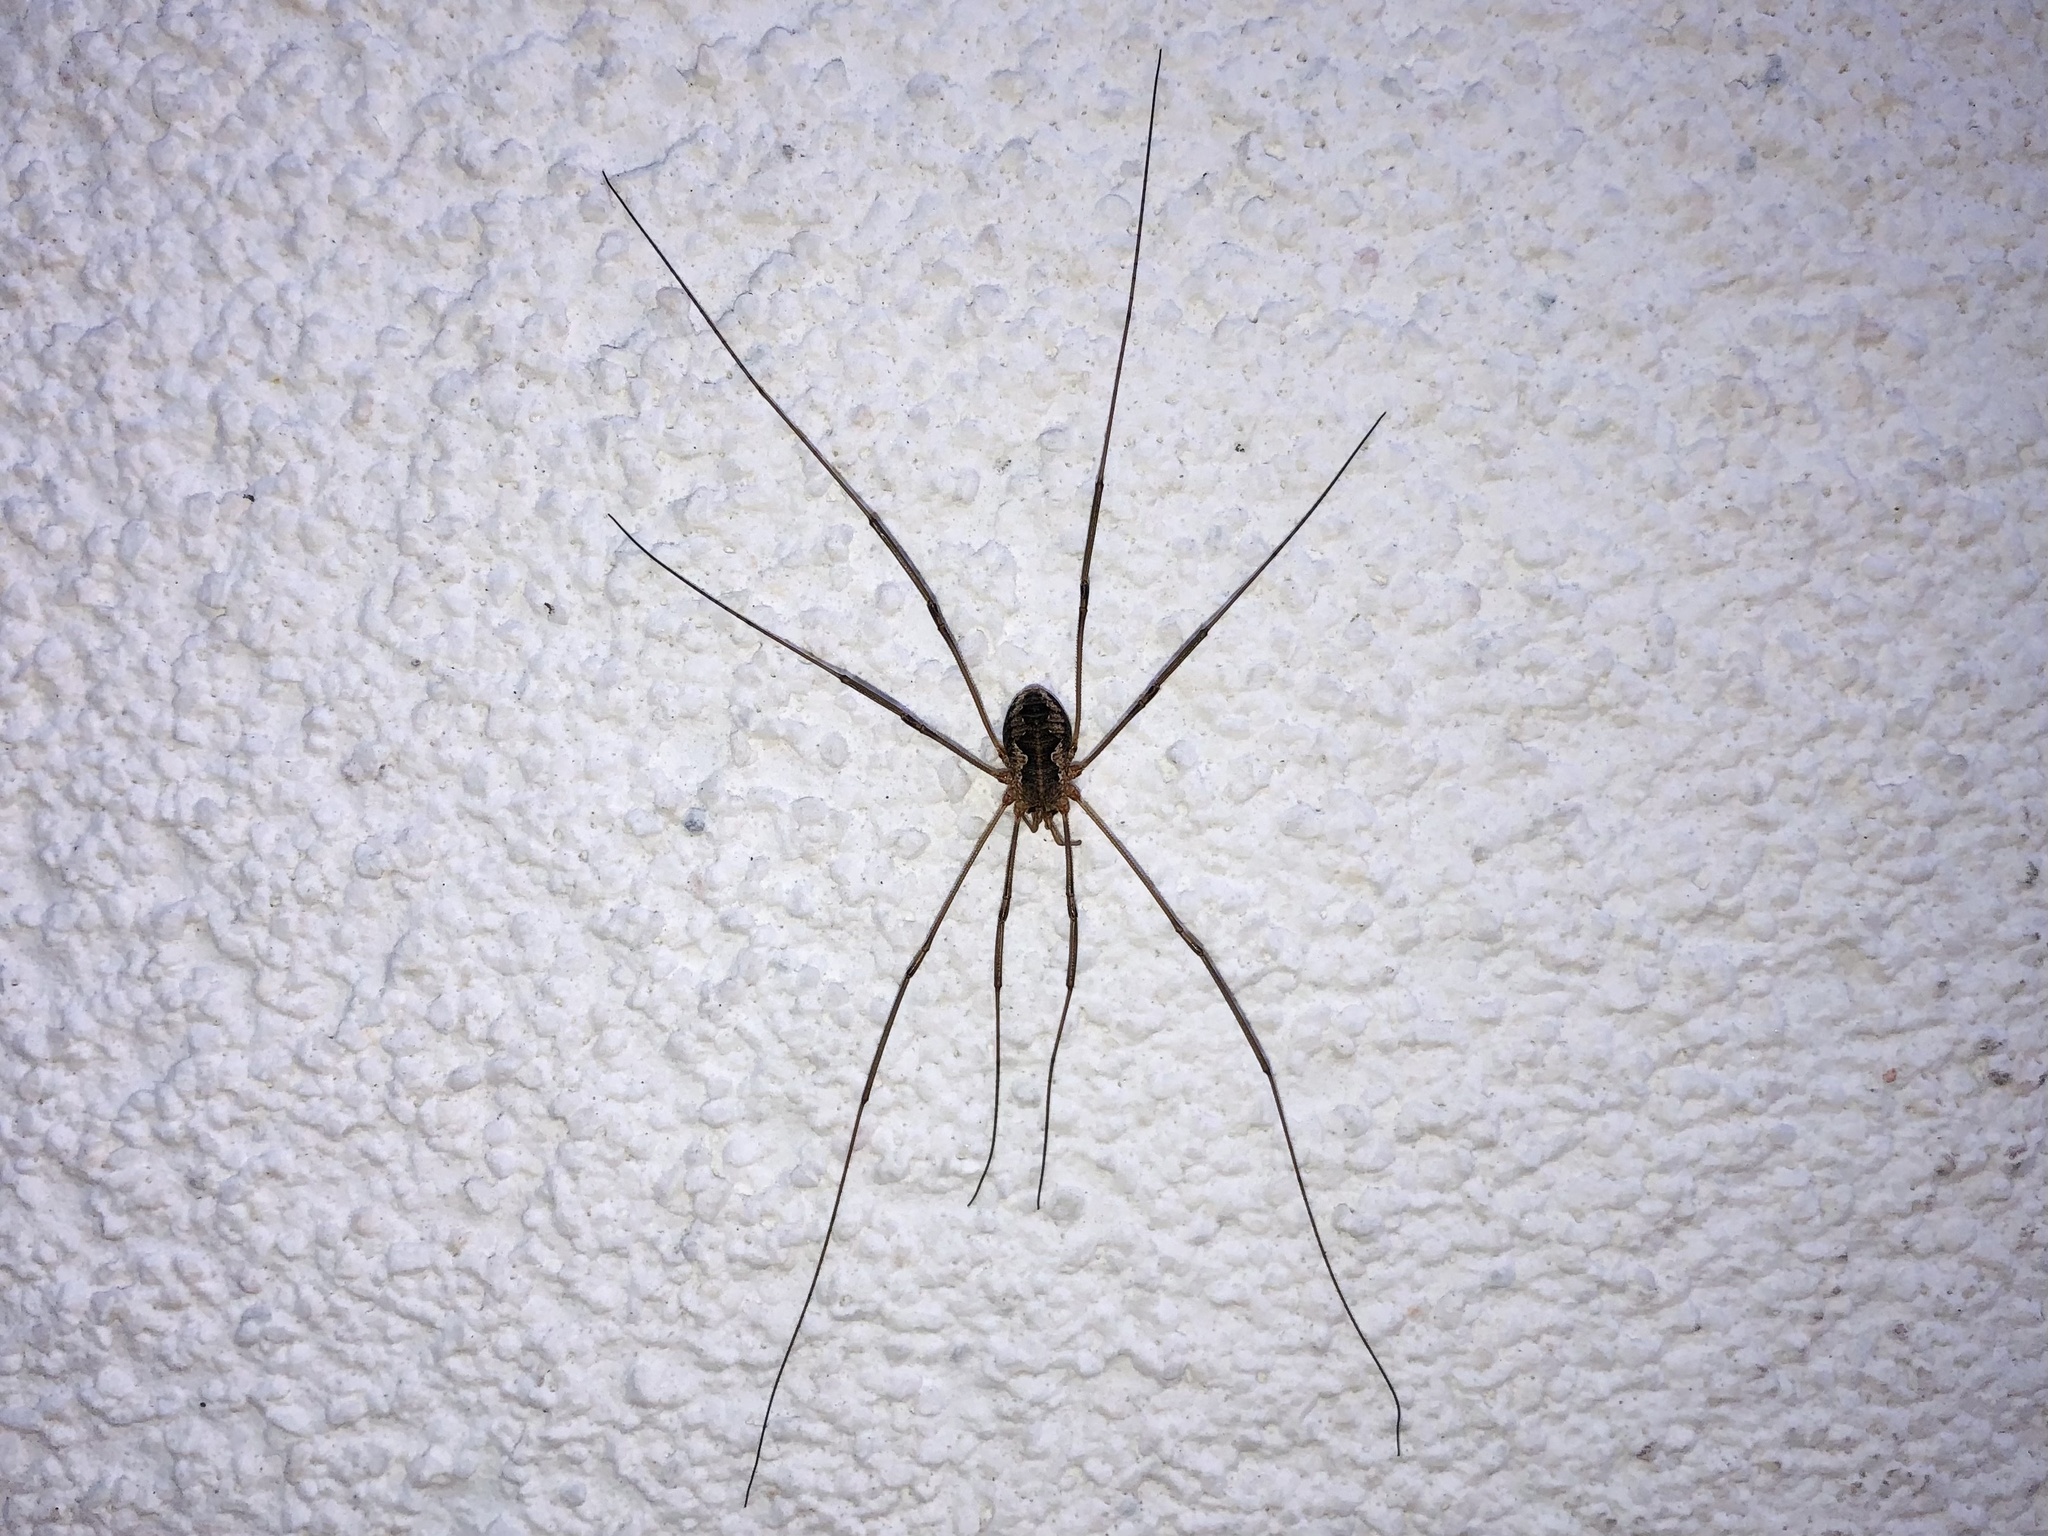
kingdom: Animalia
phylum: Arthropoda
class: Arachnida
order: Opiliones
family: Phalangiidae
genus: Phalangium
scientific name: Phalangium opilio
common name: Daddy longleg
